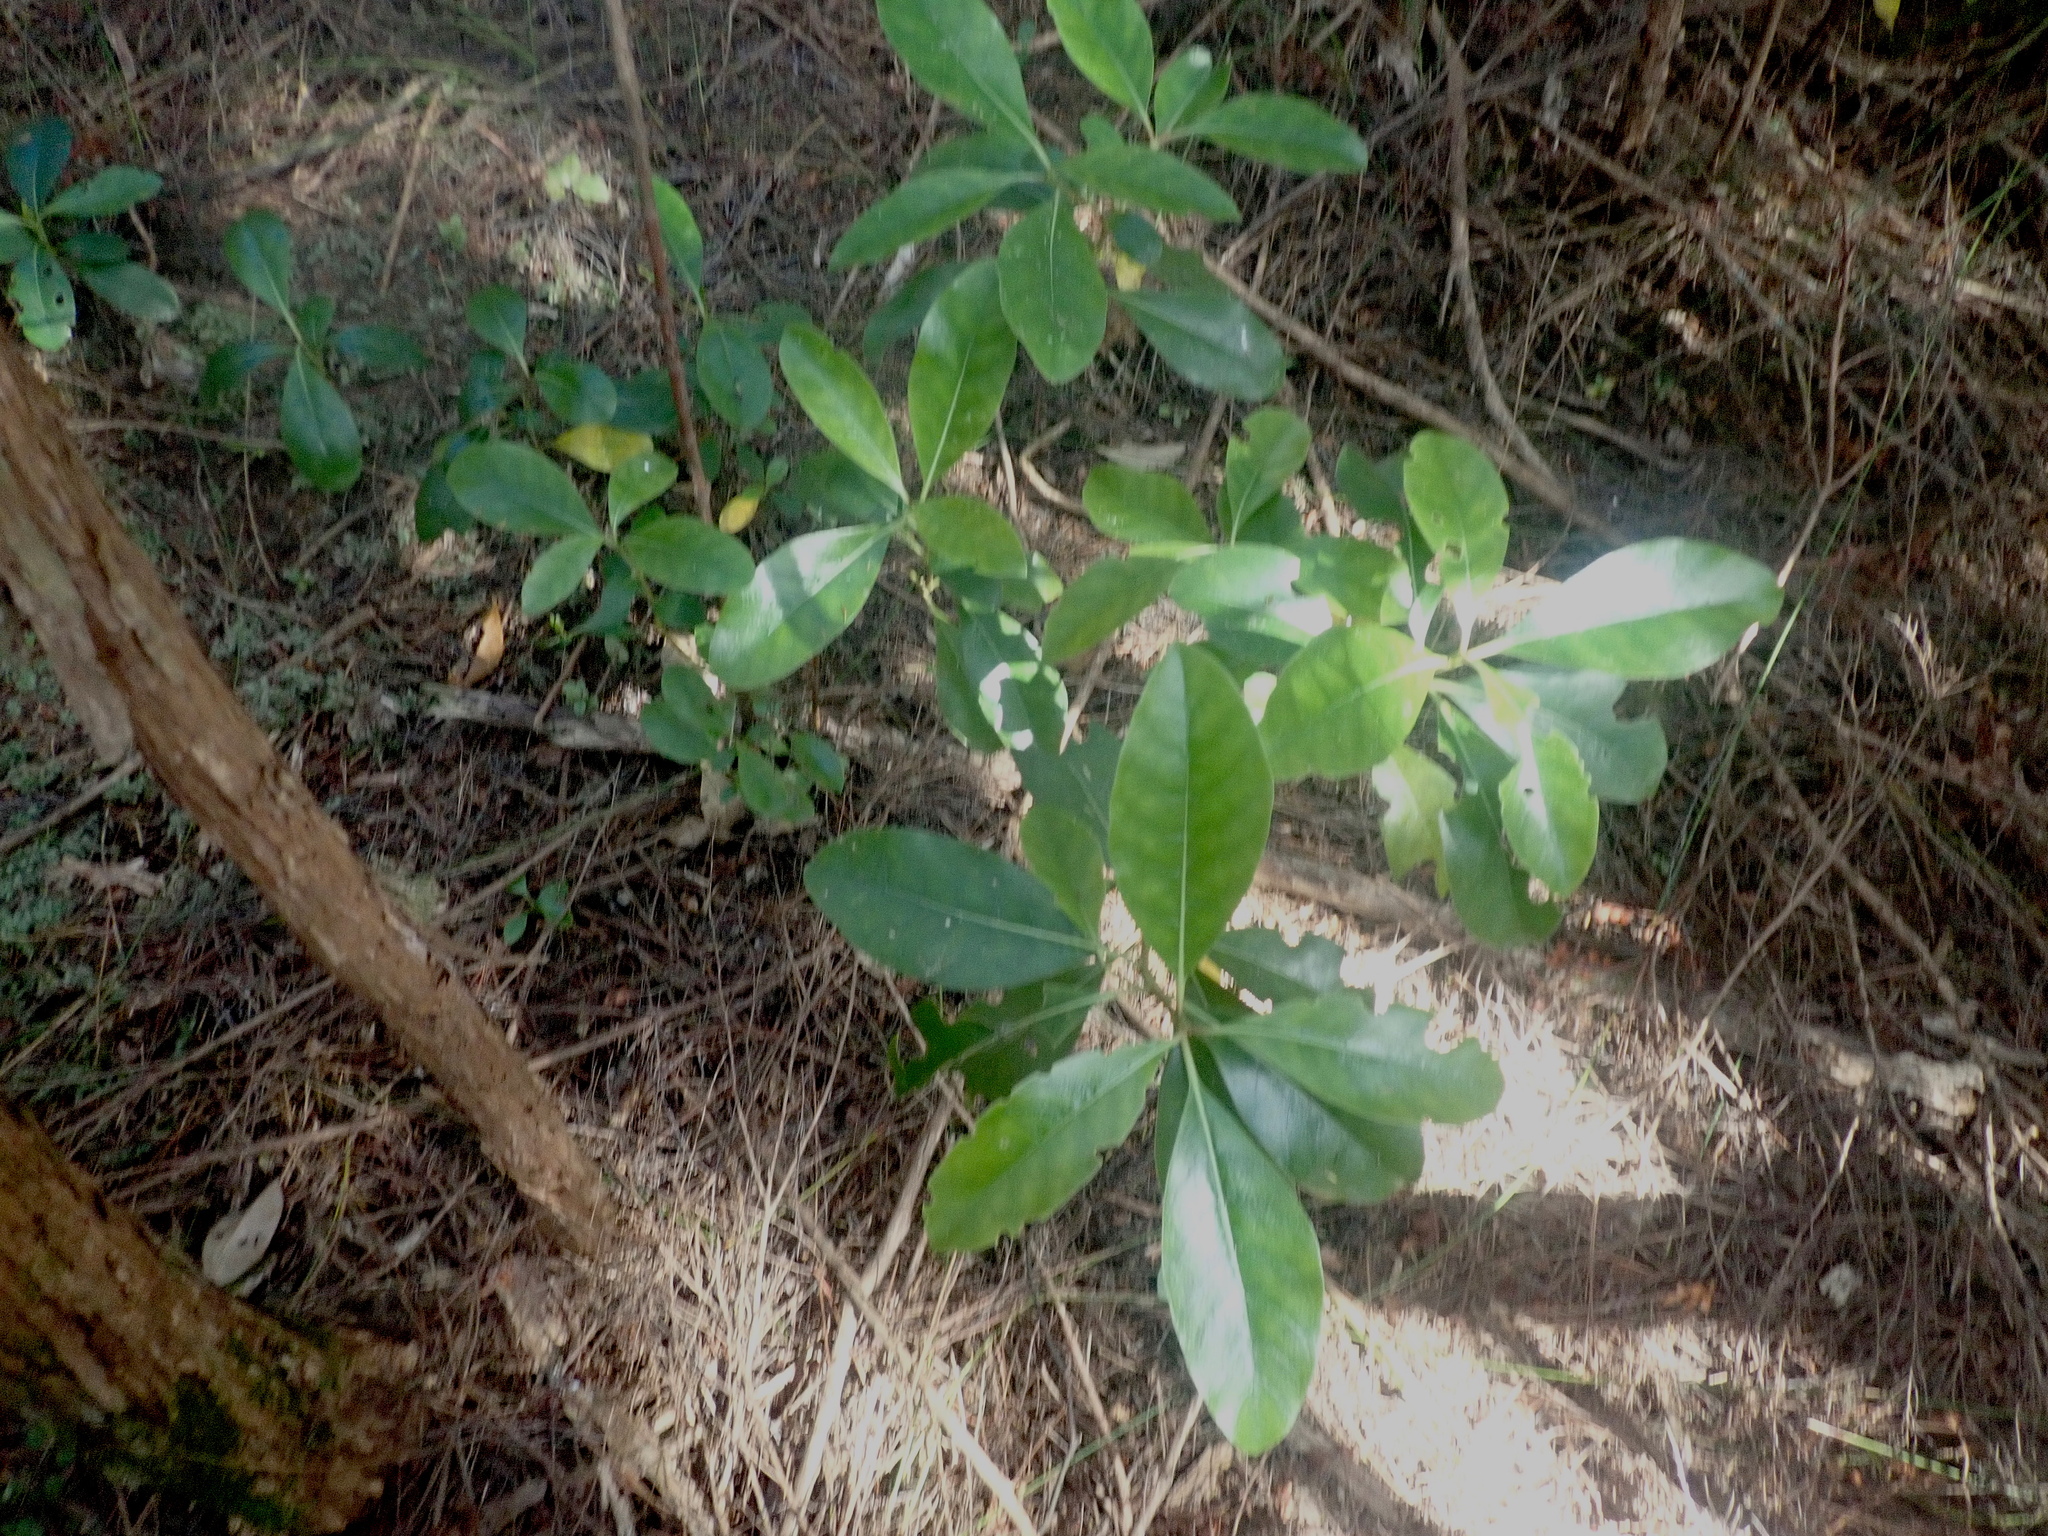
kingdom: Plantae
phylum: Tracheophyta
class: Magnoliopsida
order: Gentianales
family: Rubiaceae
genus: Coprosma
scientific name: Coprosma lucida
